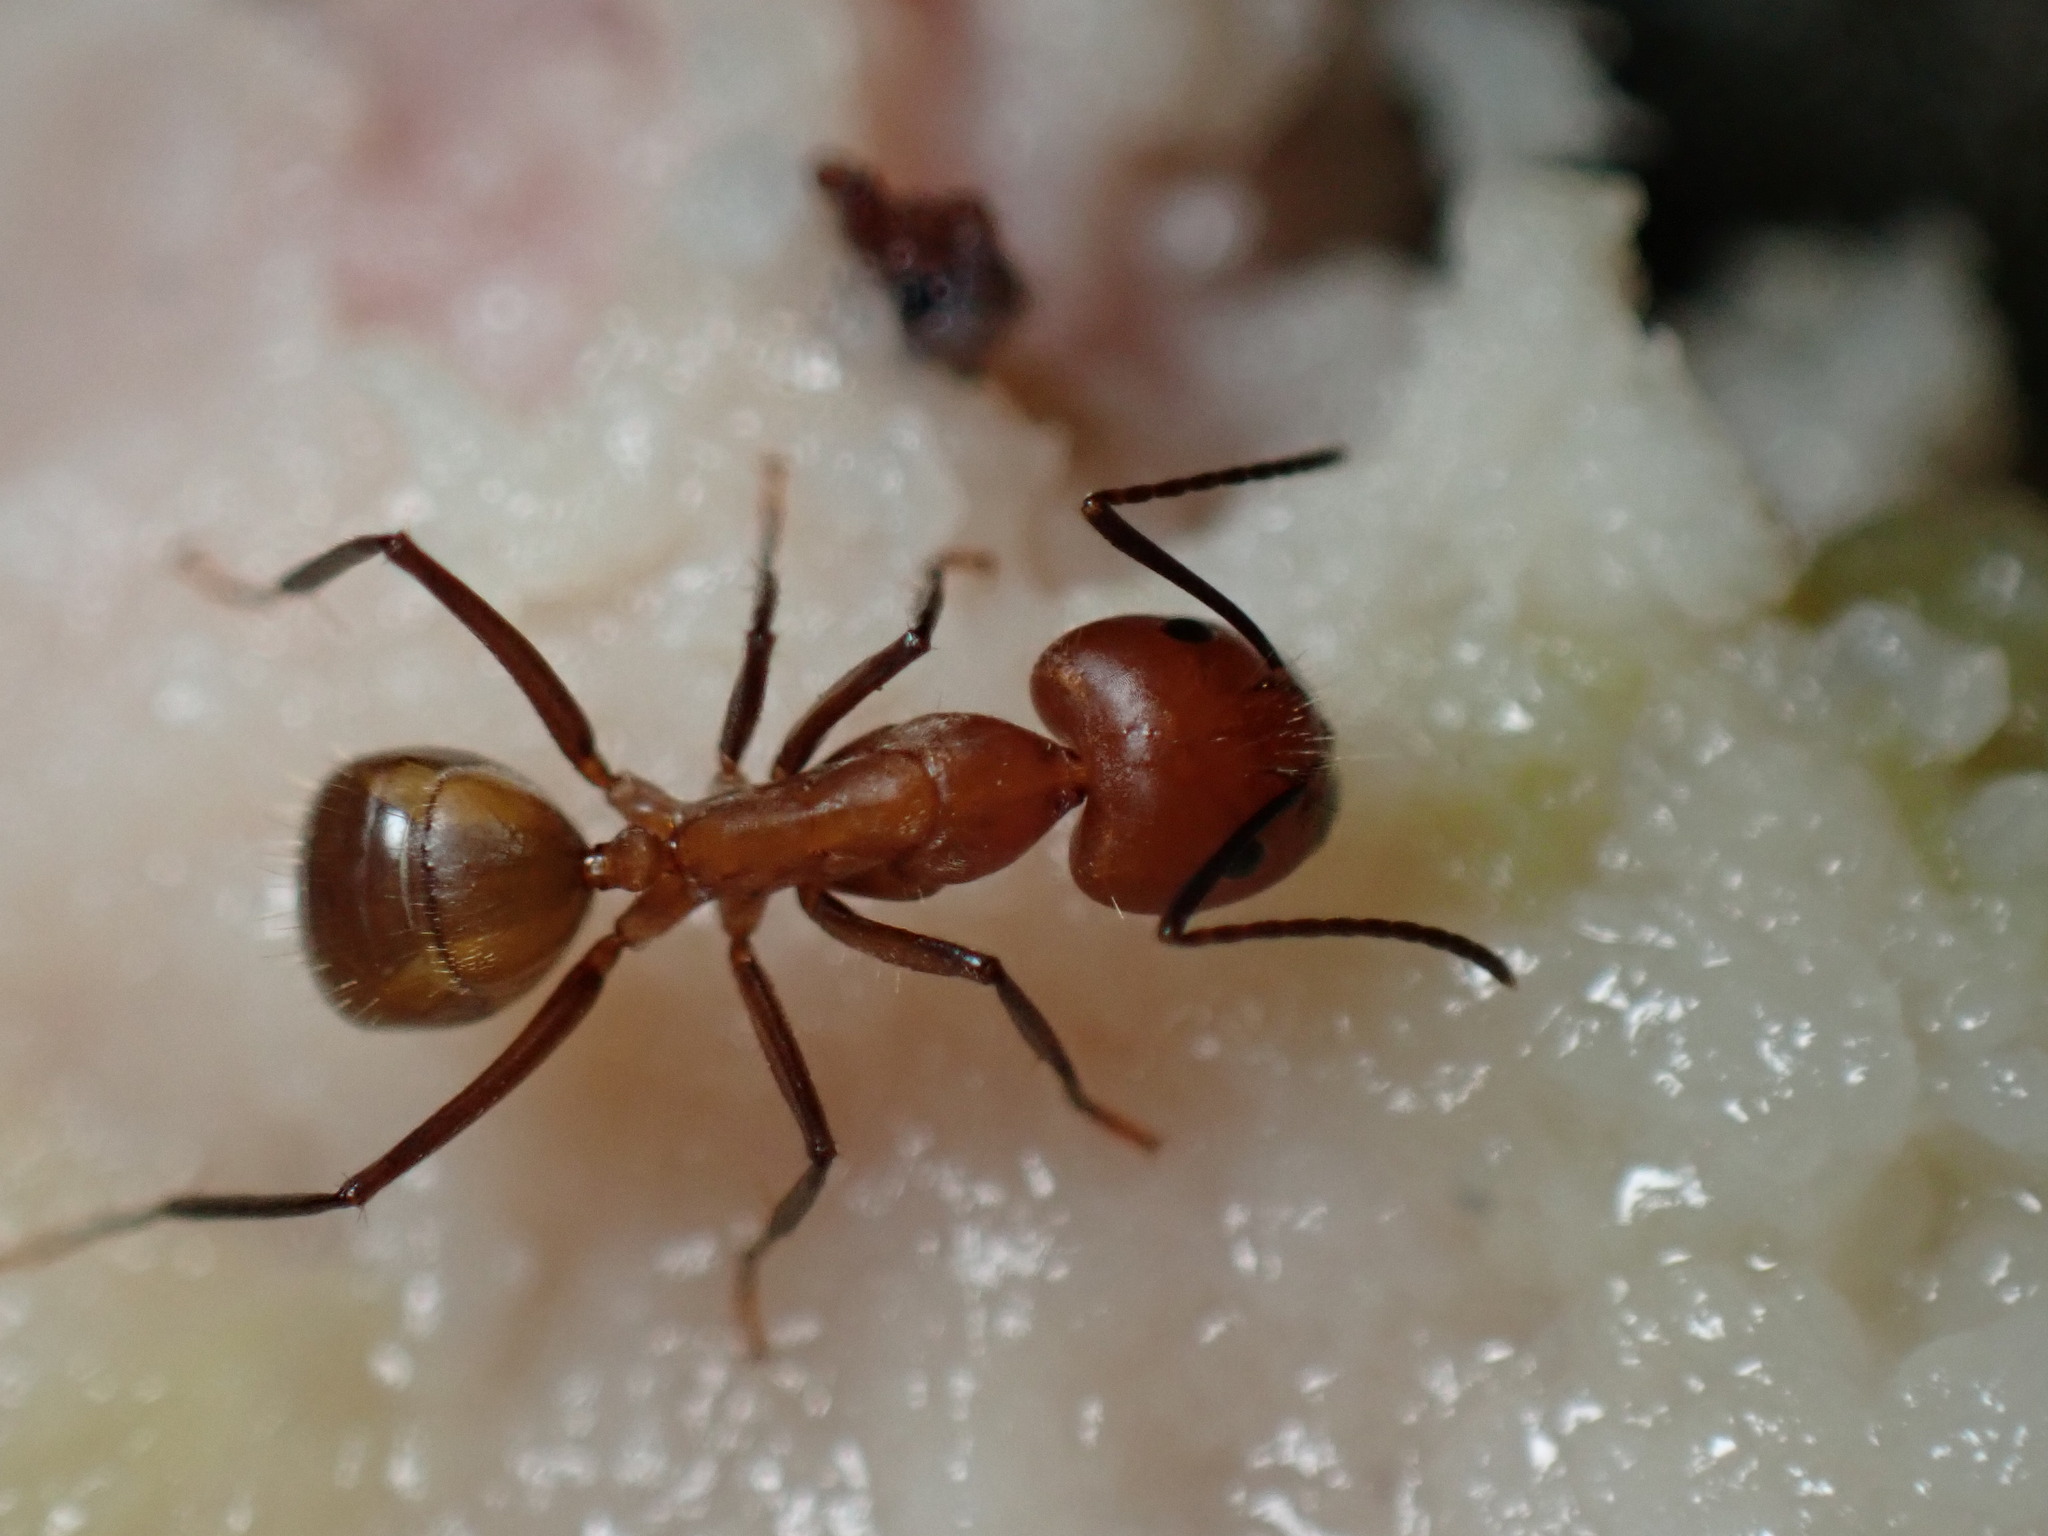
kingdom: Animalia
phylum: Arthropoda
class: Insecta
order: Hymenoptera
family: Formicidae
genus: Camponotus
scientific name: Camponotus nicobarensis
